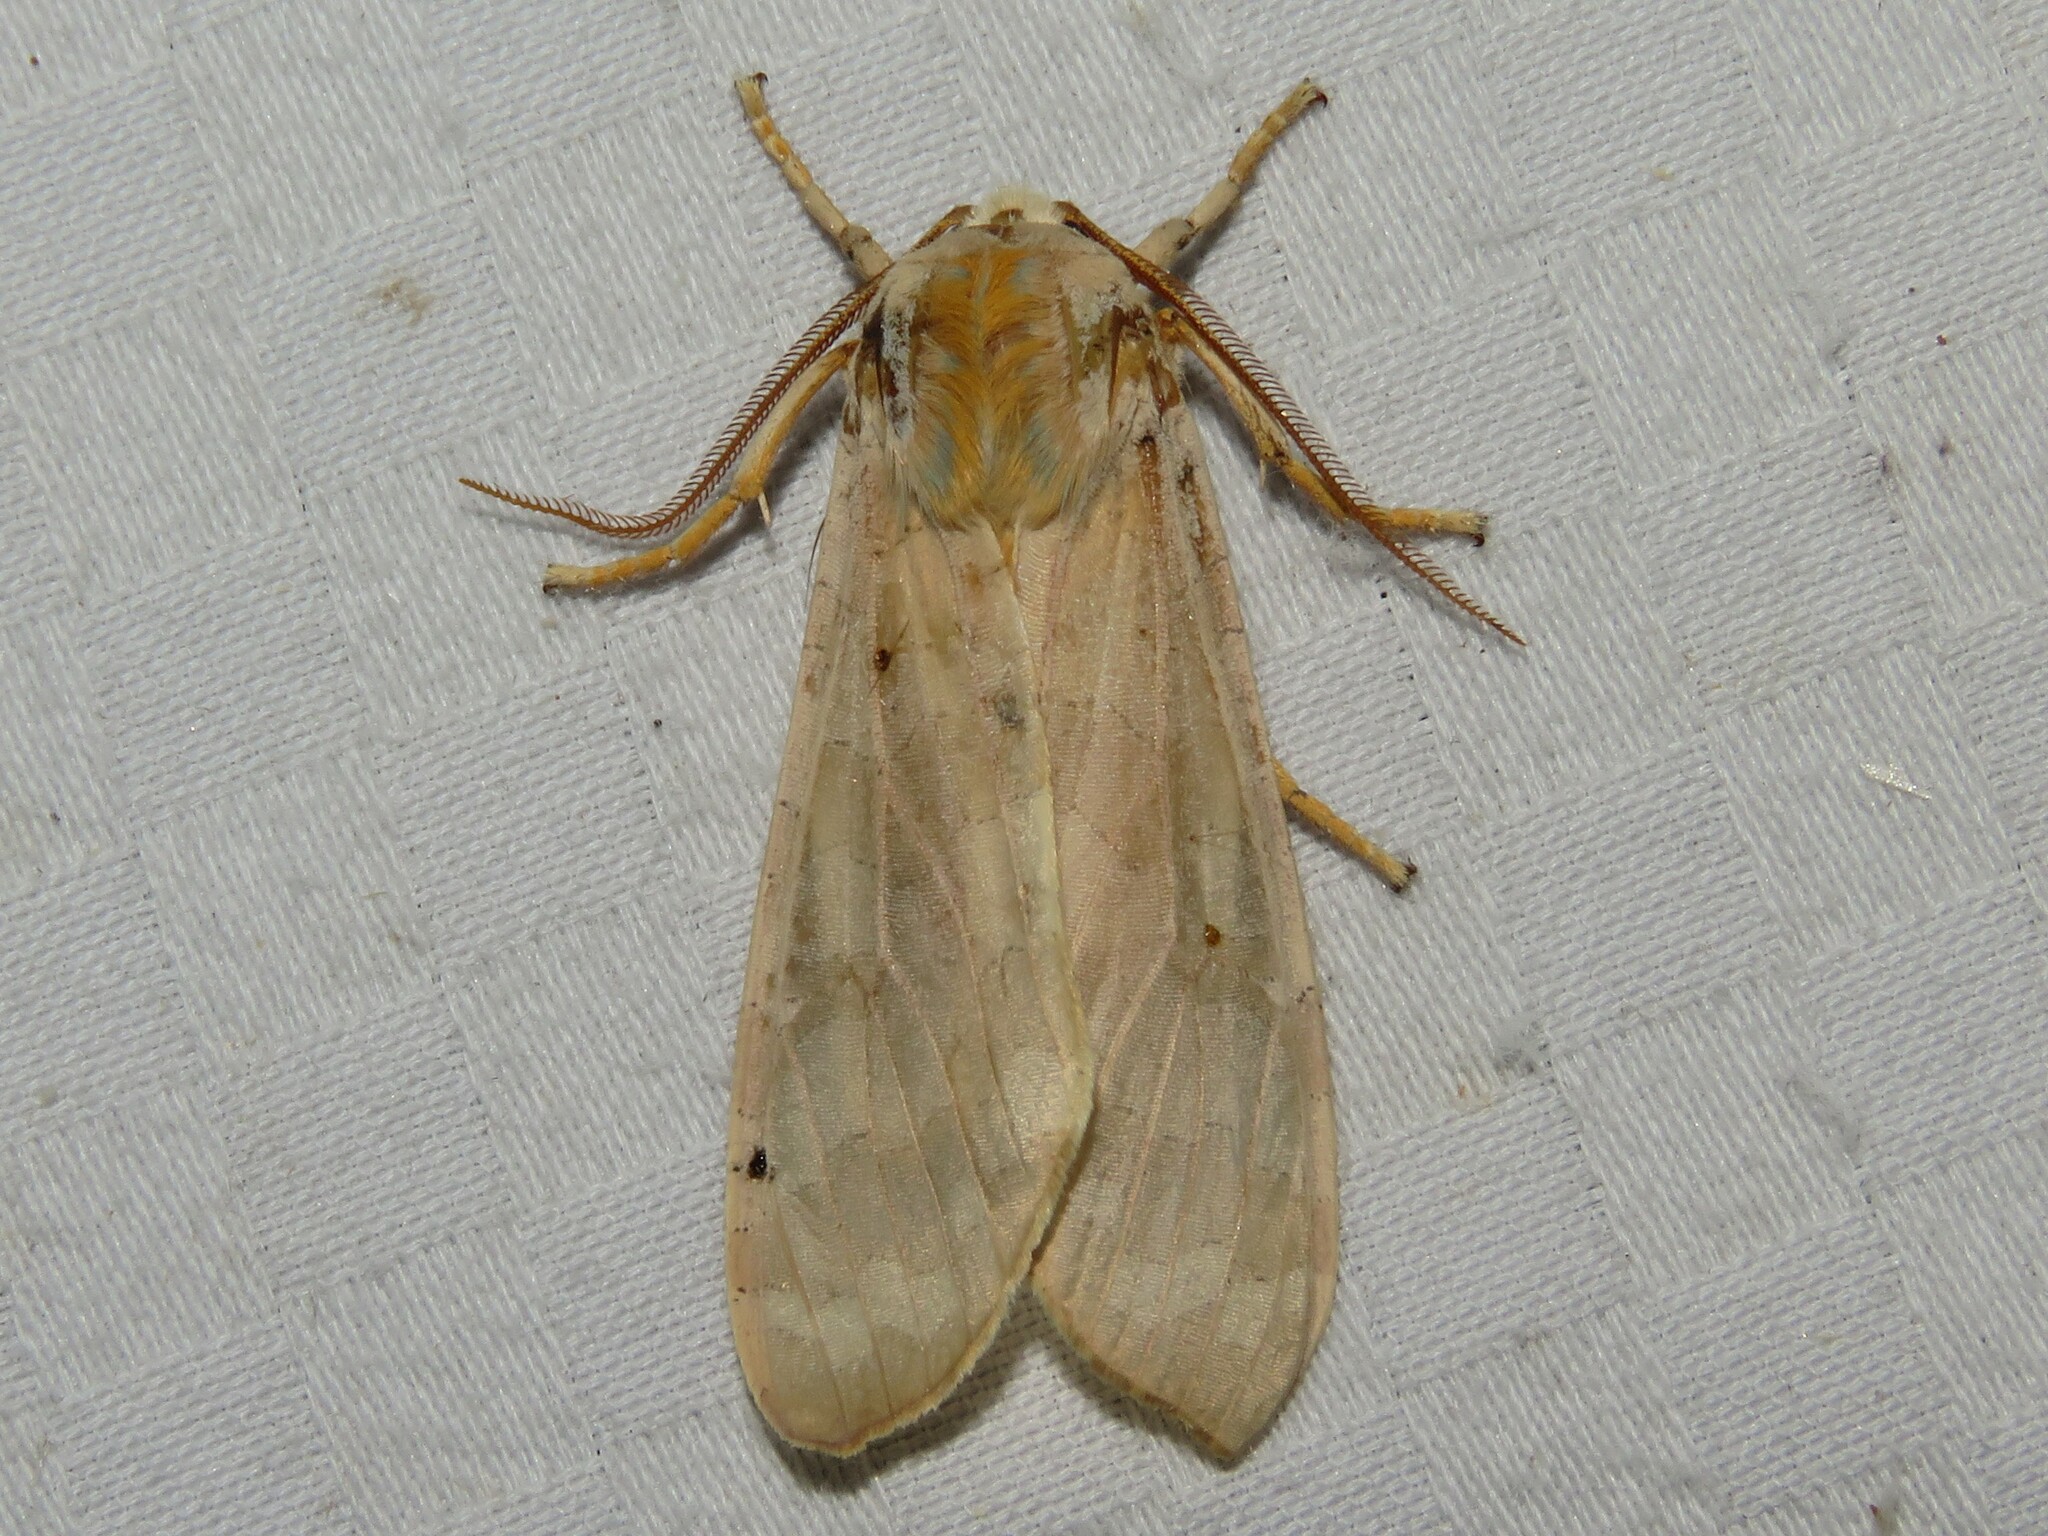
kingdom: Animalia
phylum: Arthropoda
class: Insecta
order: Lepidoptera
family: Erebidae
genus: Halysidota
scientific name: Halysidota tessellaris
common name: Banded tussock moth
